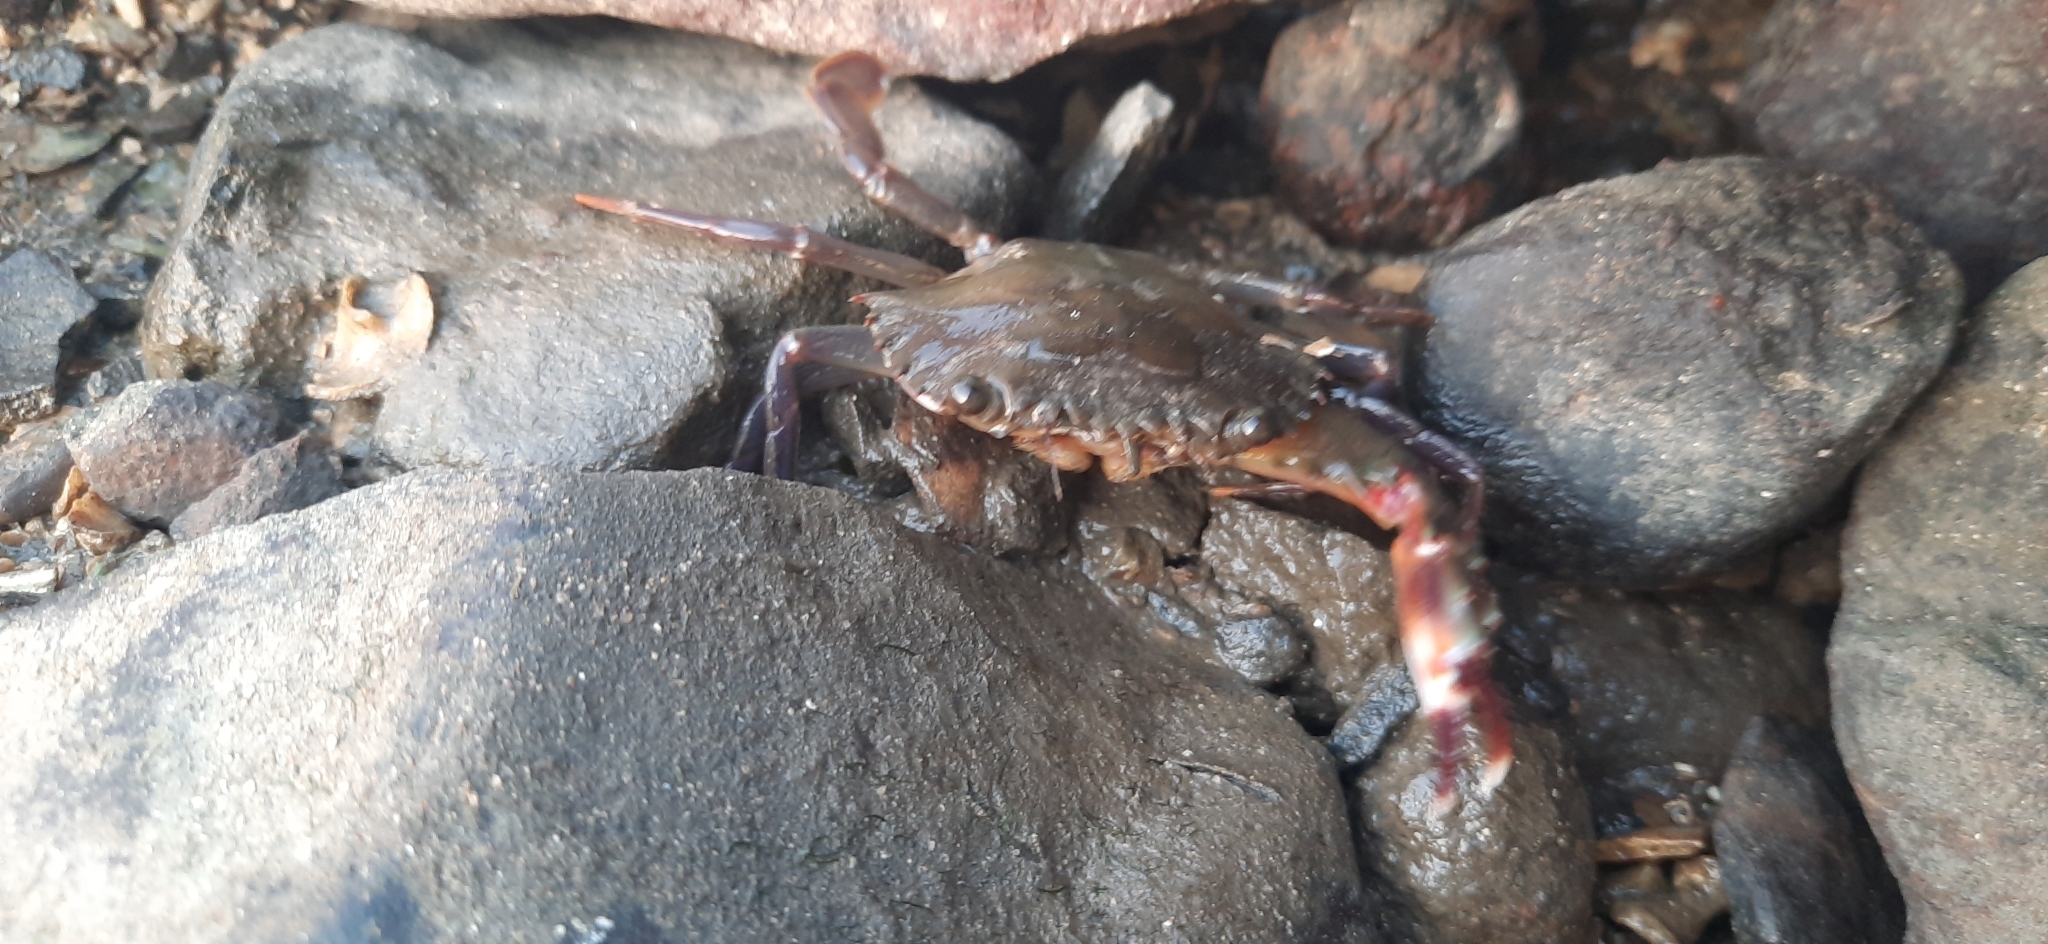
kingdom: Animalia
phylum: Arthropoda
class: Malacostraca
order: Decapoda
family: Portunidae
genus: Charybdis
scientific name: Charybdis hellerii
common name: Spiny hands
